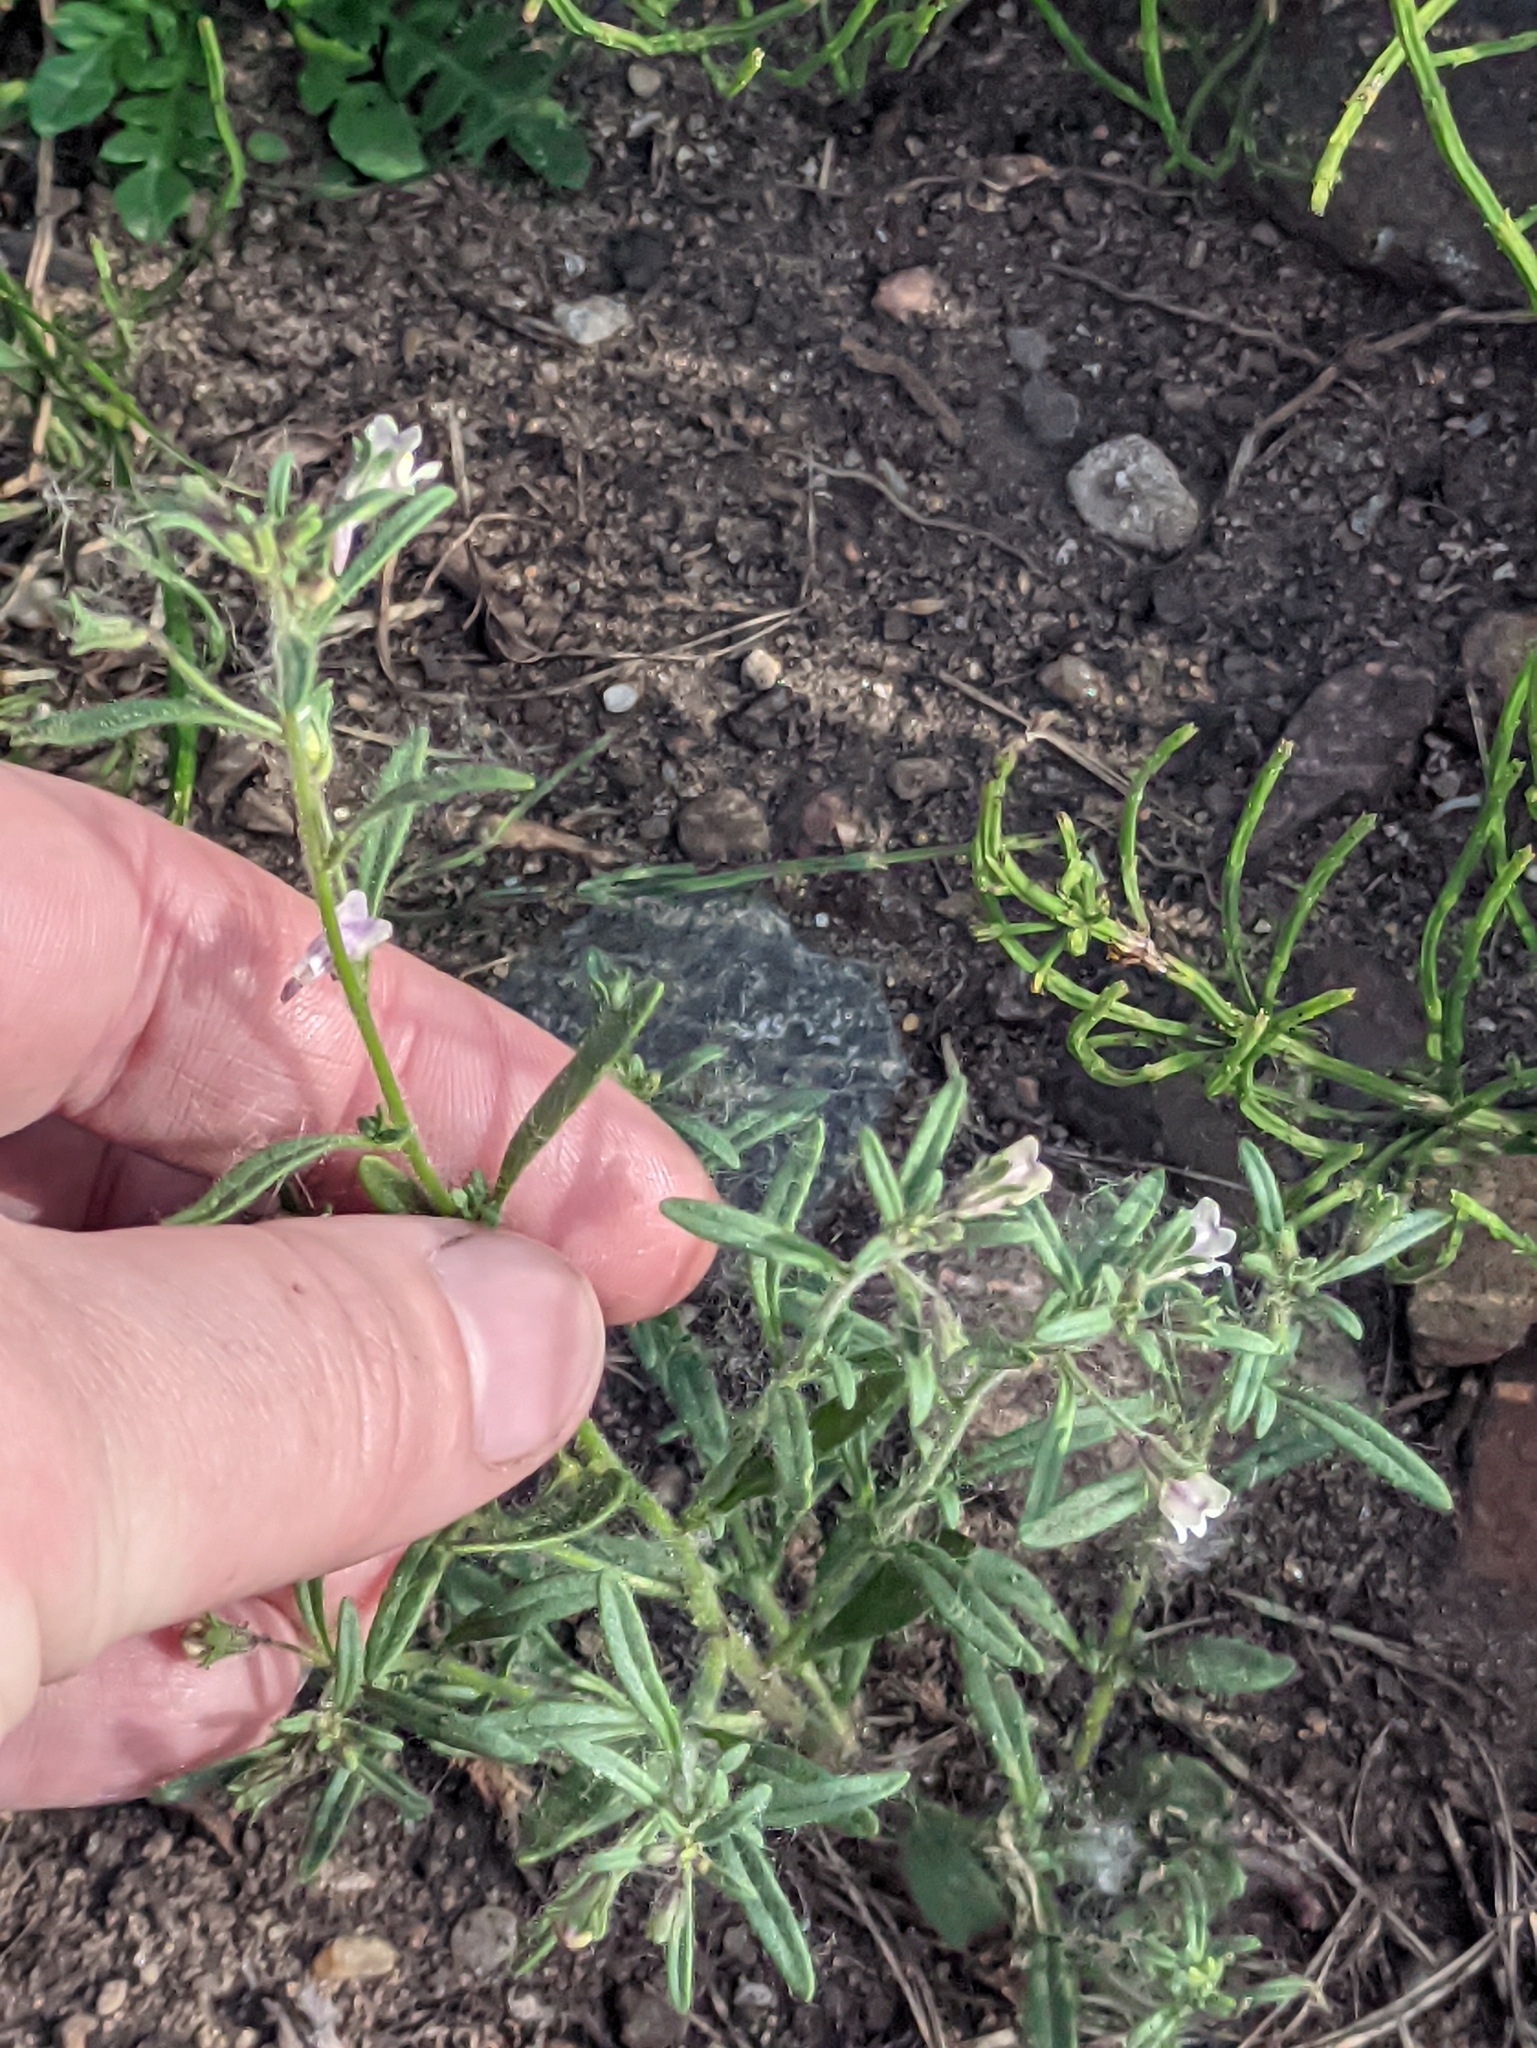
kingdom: Plantae
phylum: Tracheophyta
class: Magnoliopsida
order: Lamiales
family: Plantaginaceae
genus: Chaenorhinum
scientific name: Chaenorhinum minus
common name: Dwarf snapdragon
